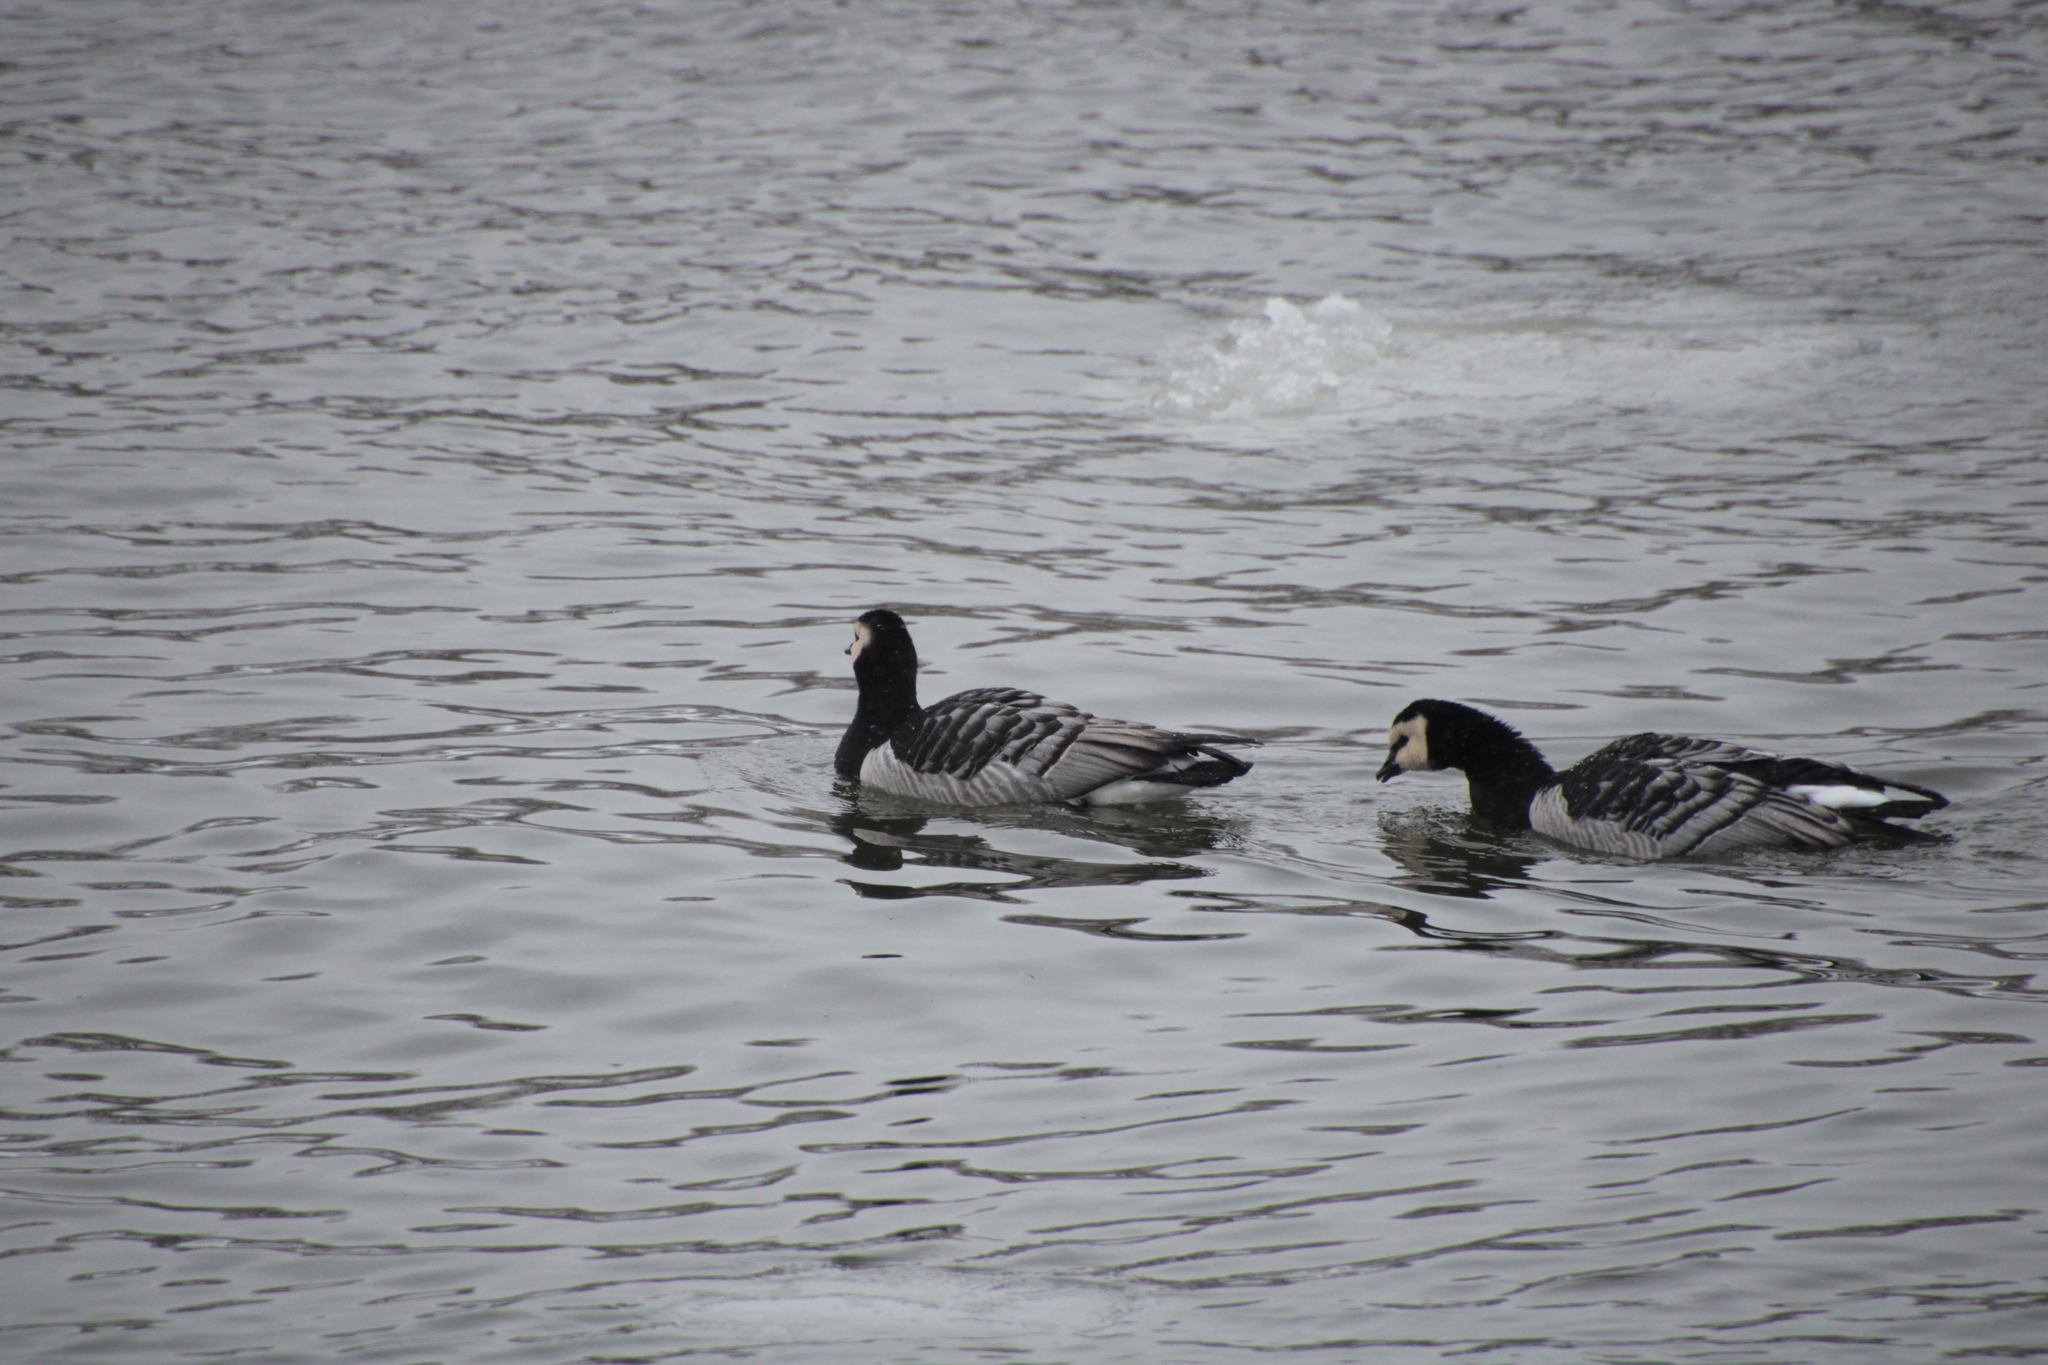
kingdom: Animalia
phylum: Chordata
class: Aves
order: Anseriformes
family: Anatidae
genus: Branta
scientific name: Branta leucopsis
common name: Barnacle goose
